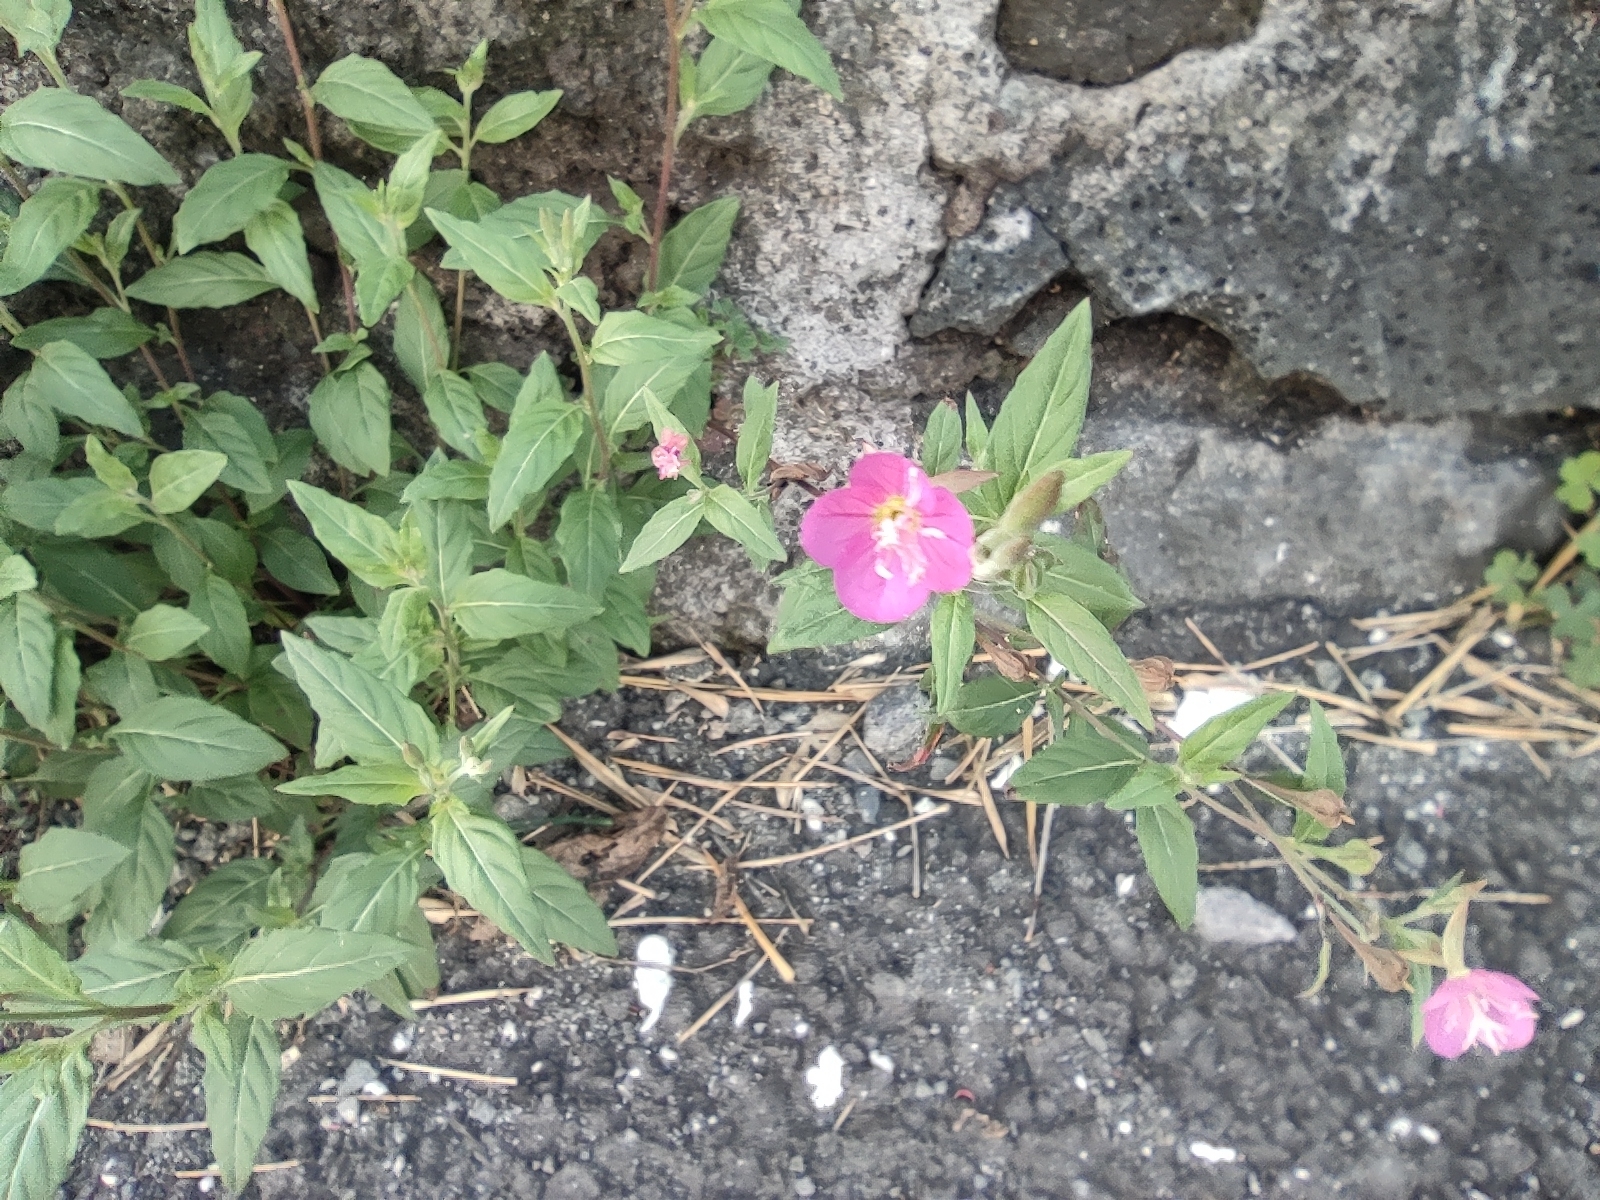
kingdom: Plantae
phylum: Tracheophyta
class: Magnoliopsida
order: Myrtales
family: Onagraceae
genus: Oenothera
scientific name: Oenothera rosea
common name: Rosy evening-primrose
